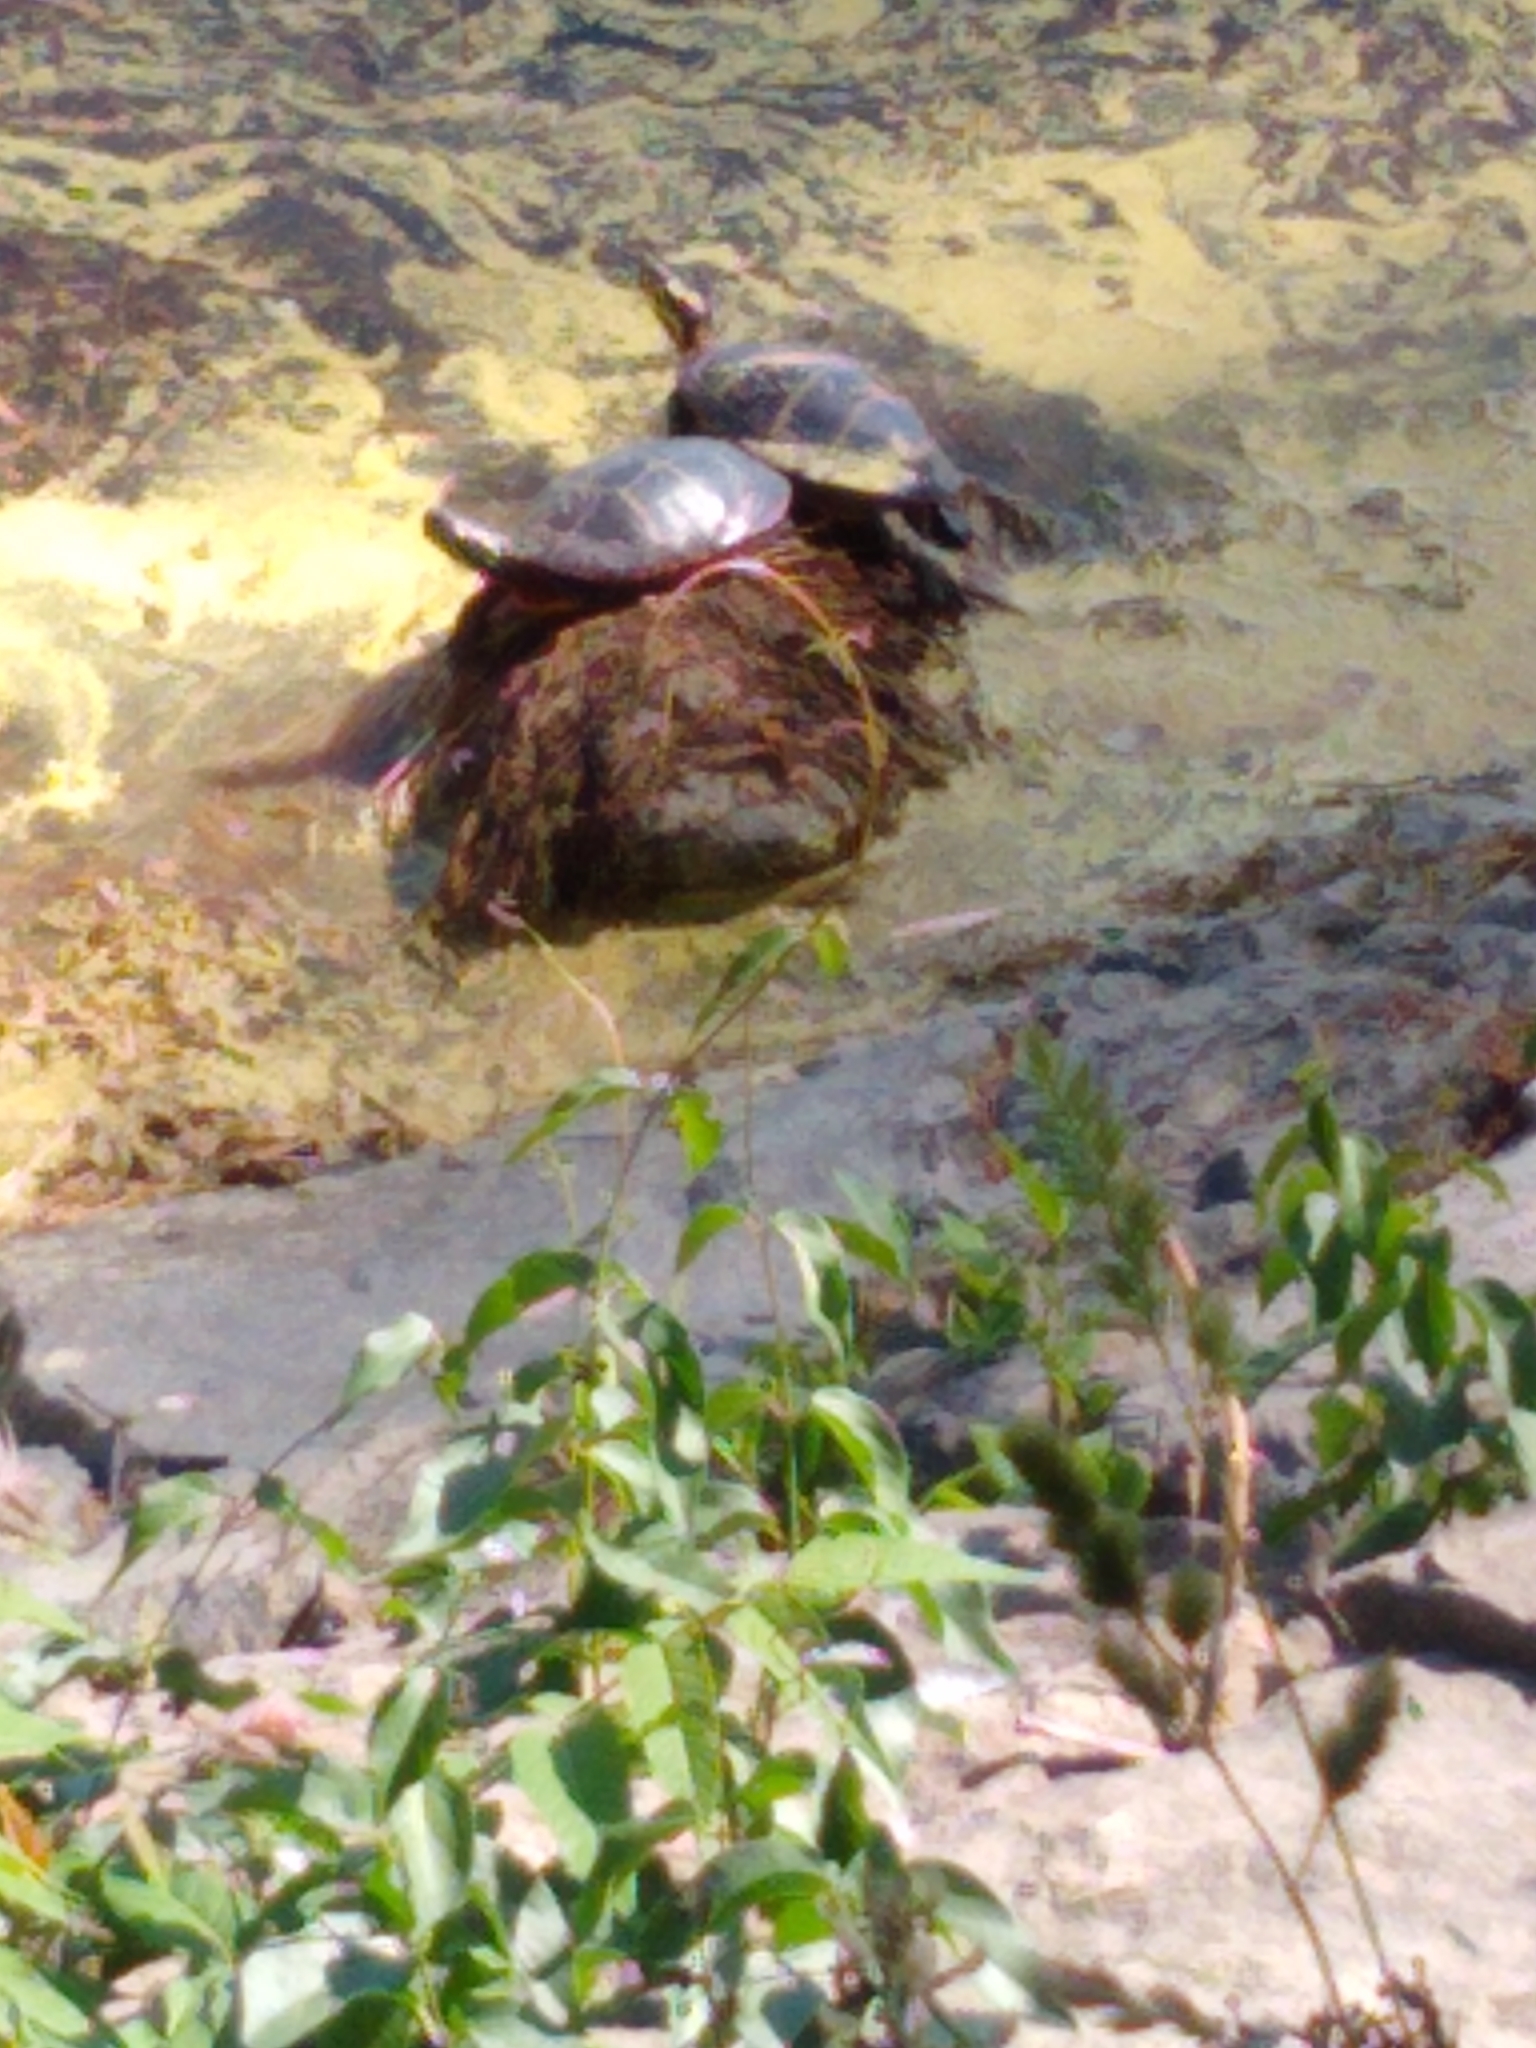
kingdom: Animalia
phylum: Chordata
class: Testudines
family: Emydidae
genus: Chrysemys
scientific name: Chrysemys picta
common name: Painted turtle
